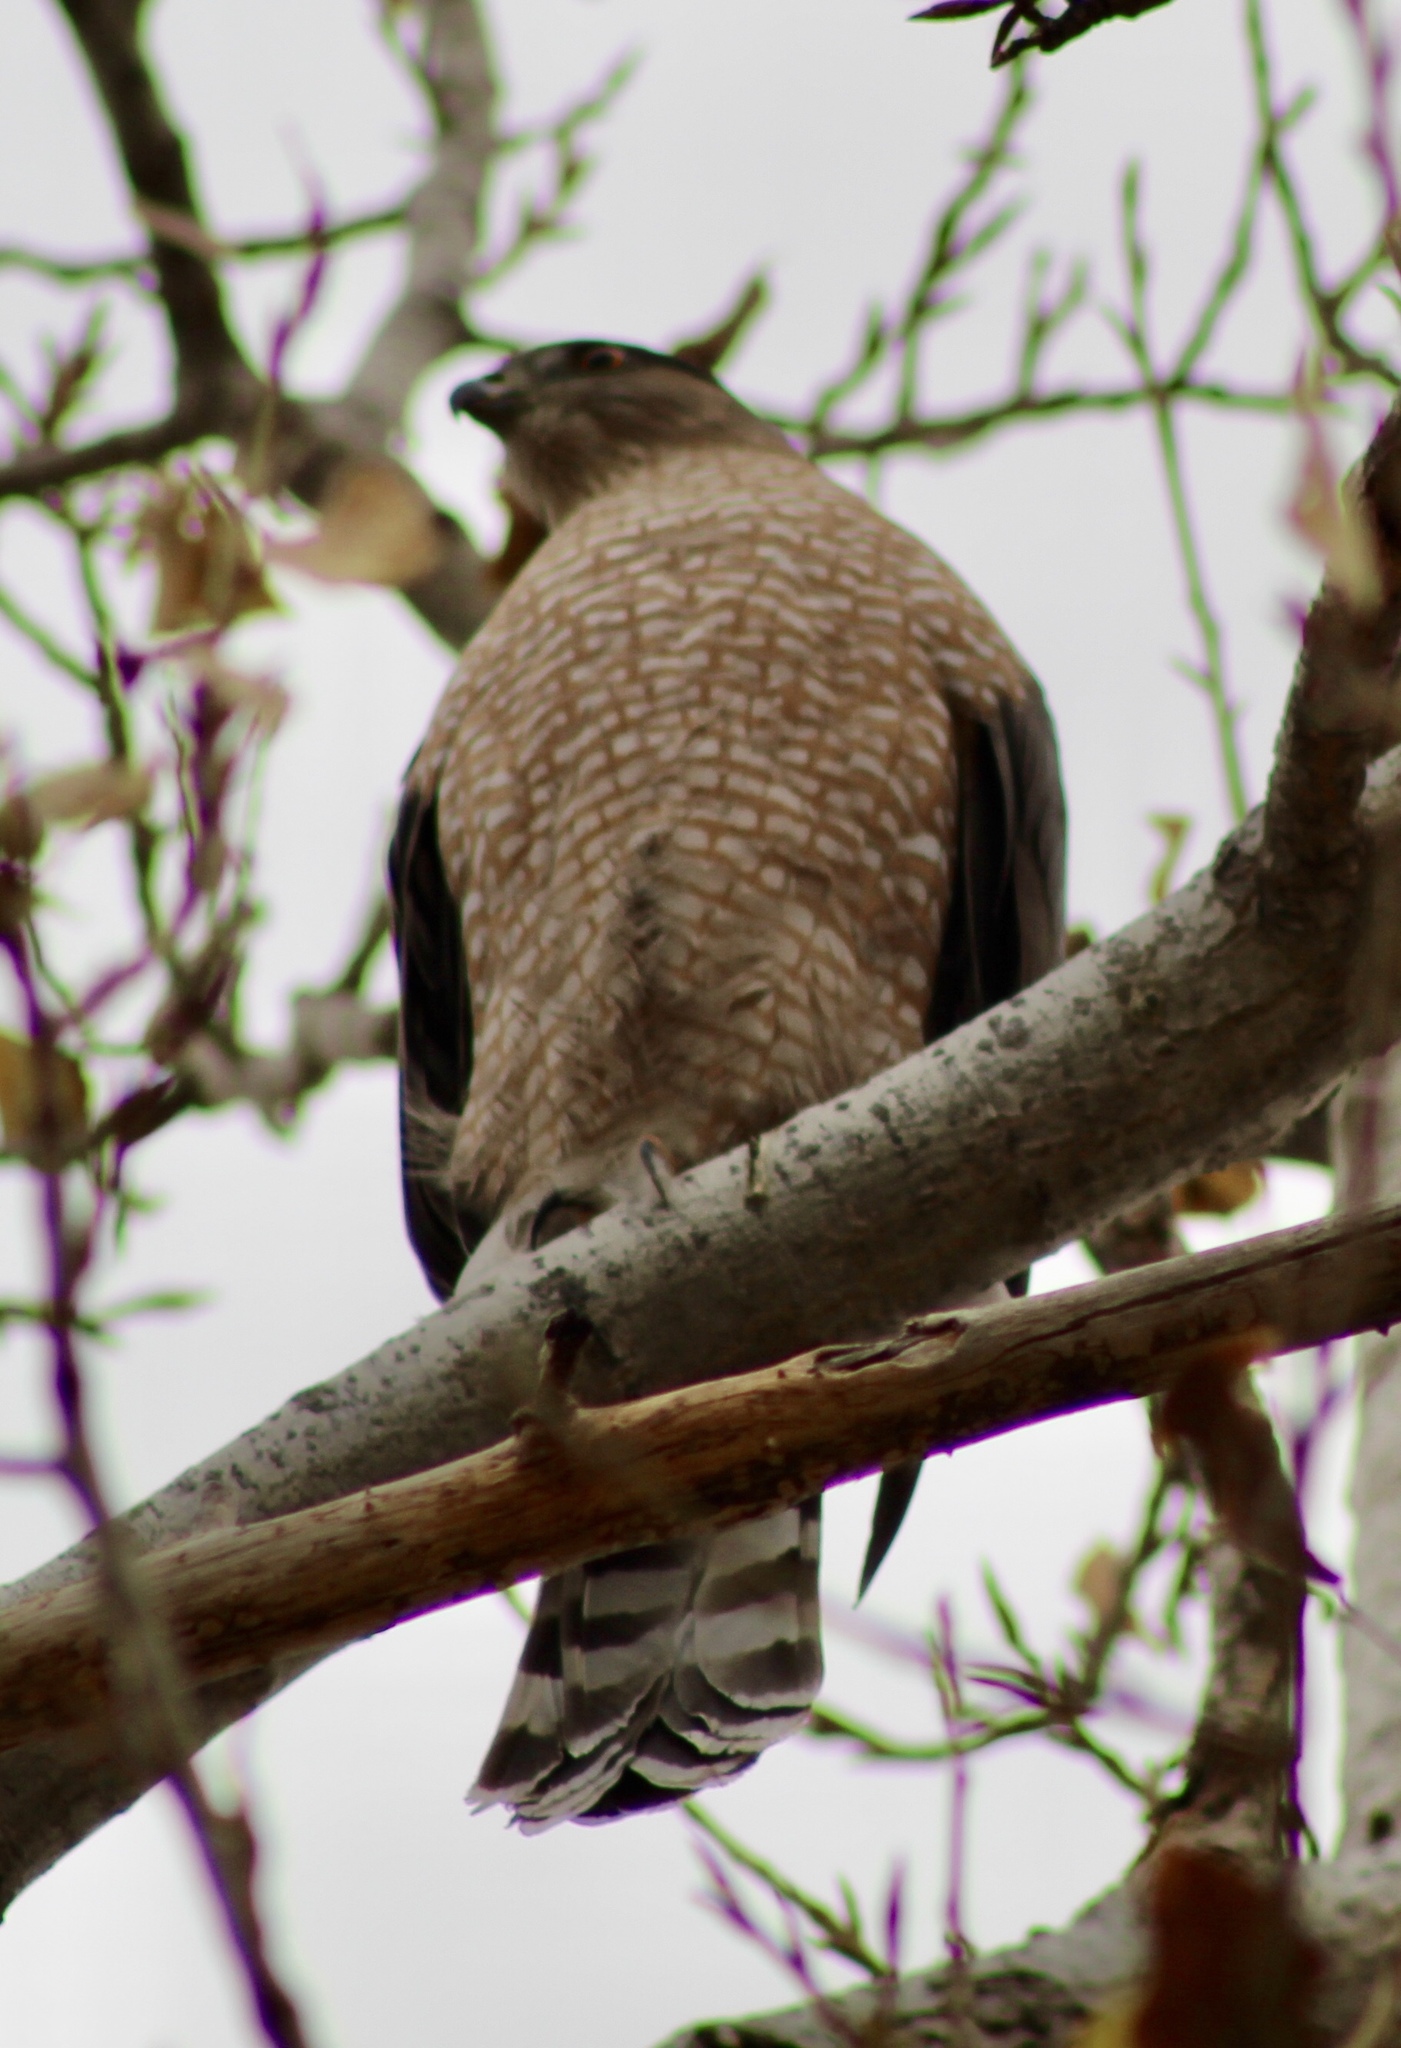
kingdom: Animalia
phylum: Chordata
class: Aves
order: Accipitriformes
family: Accipitridae
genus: Accipiter
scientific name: Accipiter cooperii
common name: Cooper's hawk
